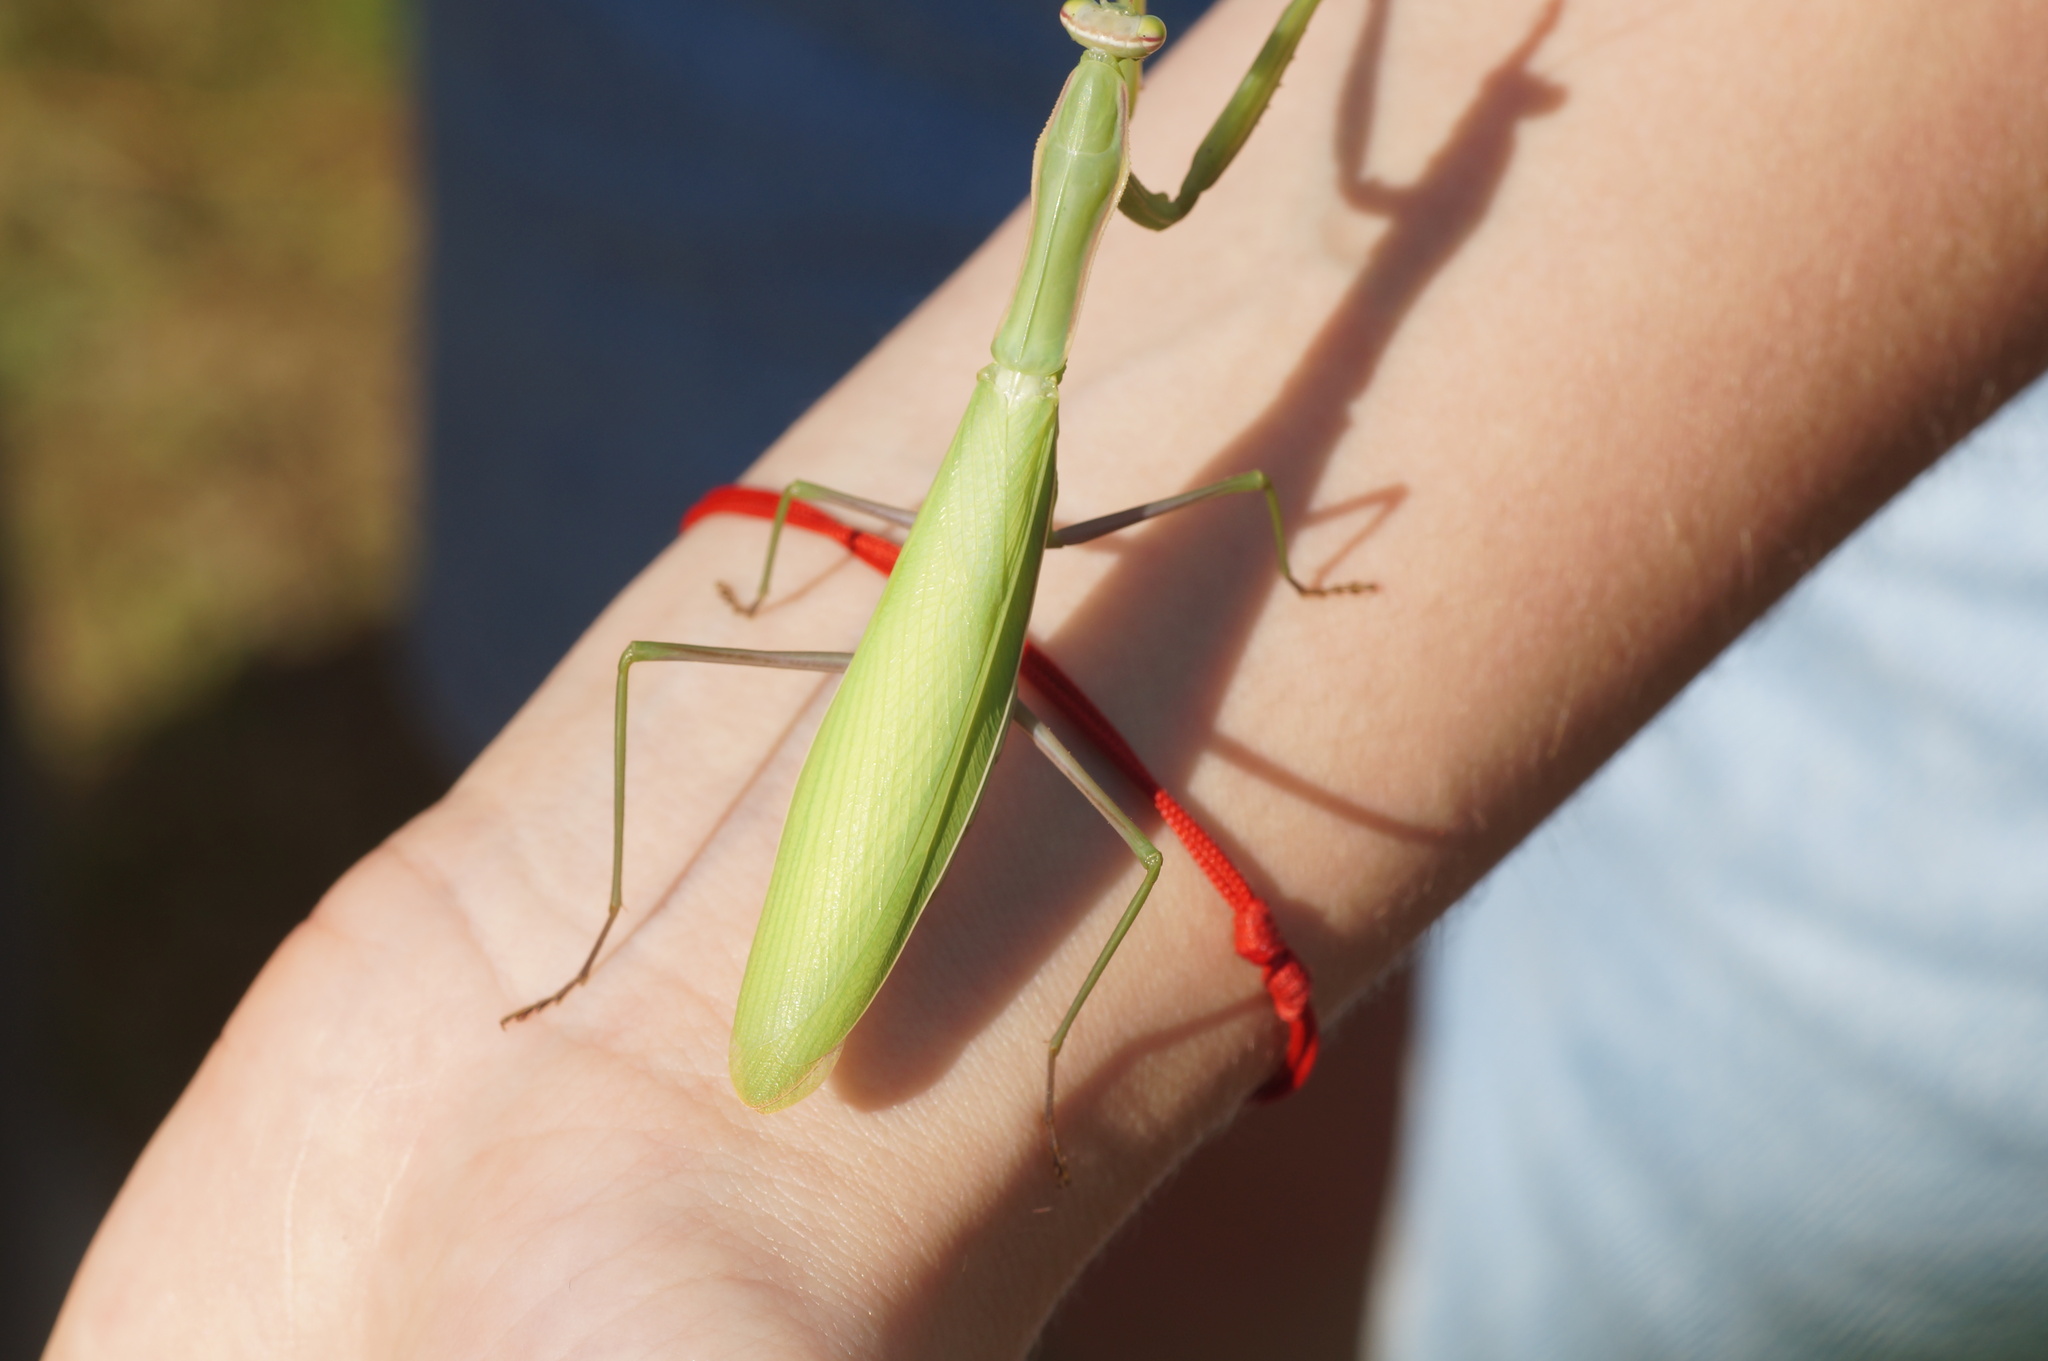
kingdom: Animalia
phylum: Arthropoda
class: Insecta
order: Mantodea
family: Mantidae
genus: Mantis
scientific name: Mantis religiosa
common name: Praying mantis
